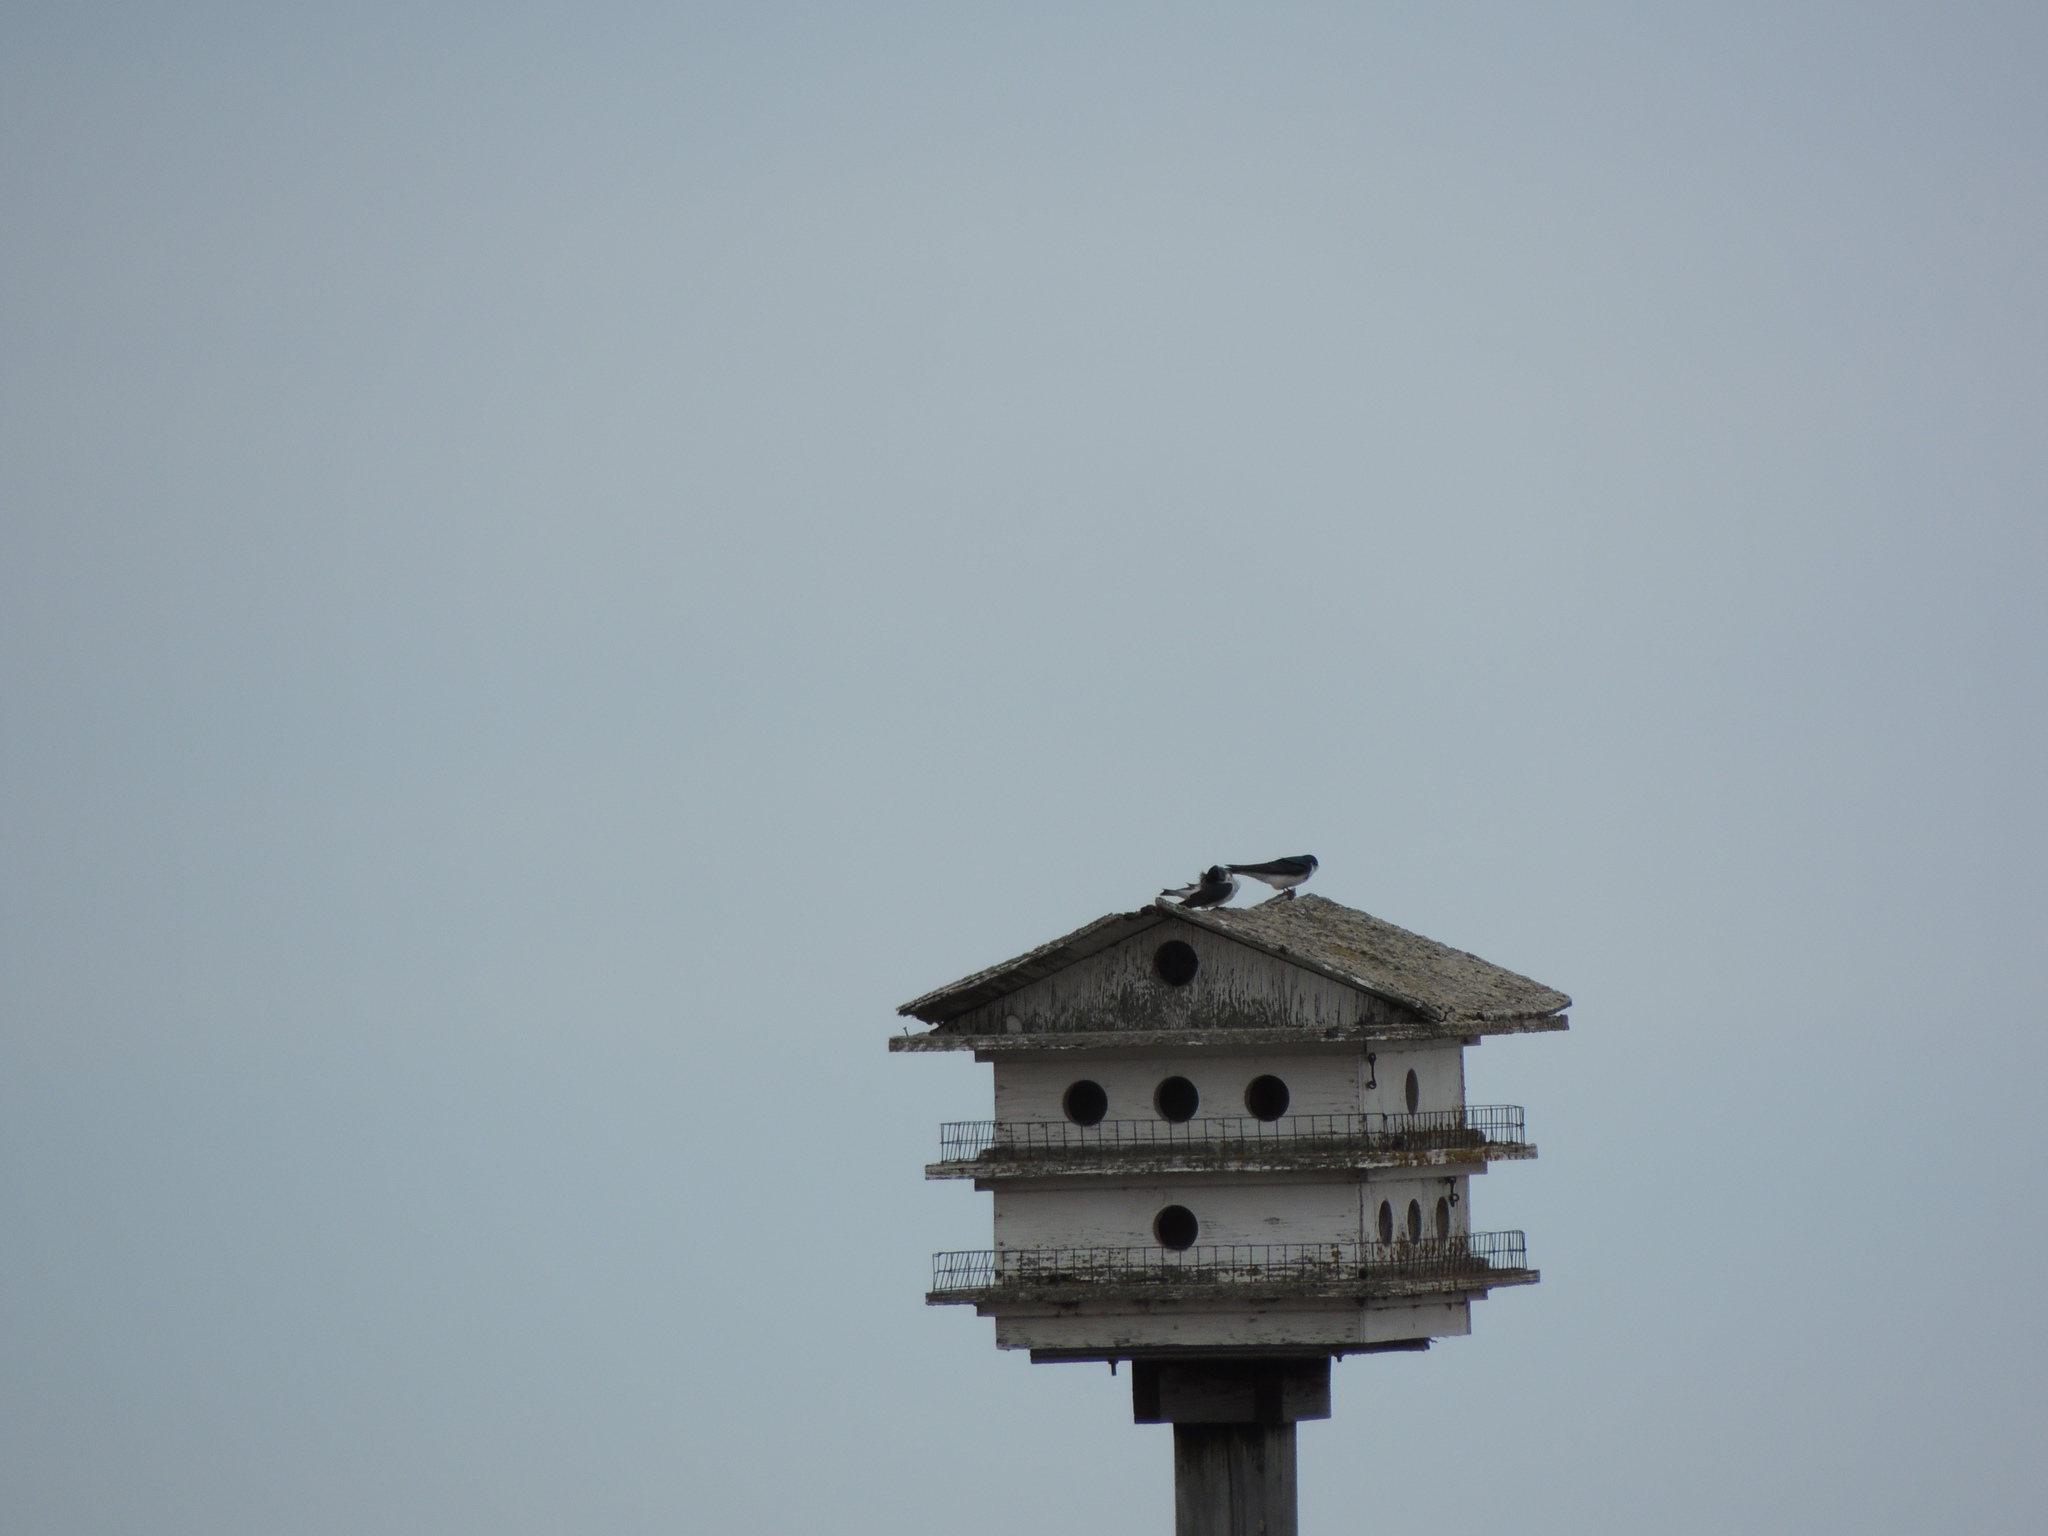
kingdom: Animalia
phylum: Chordata
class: Aves
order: Passeriformes
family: Hirundinidae
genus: Tachycineta
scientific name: Tachycineta bicolor
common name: Tree swallow
